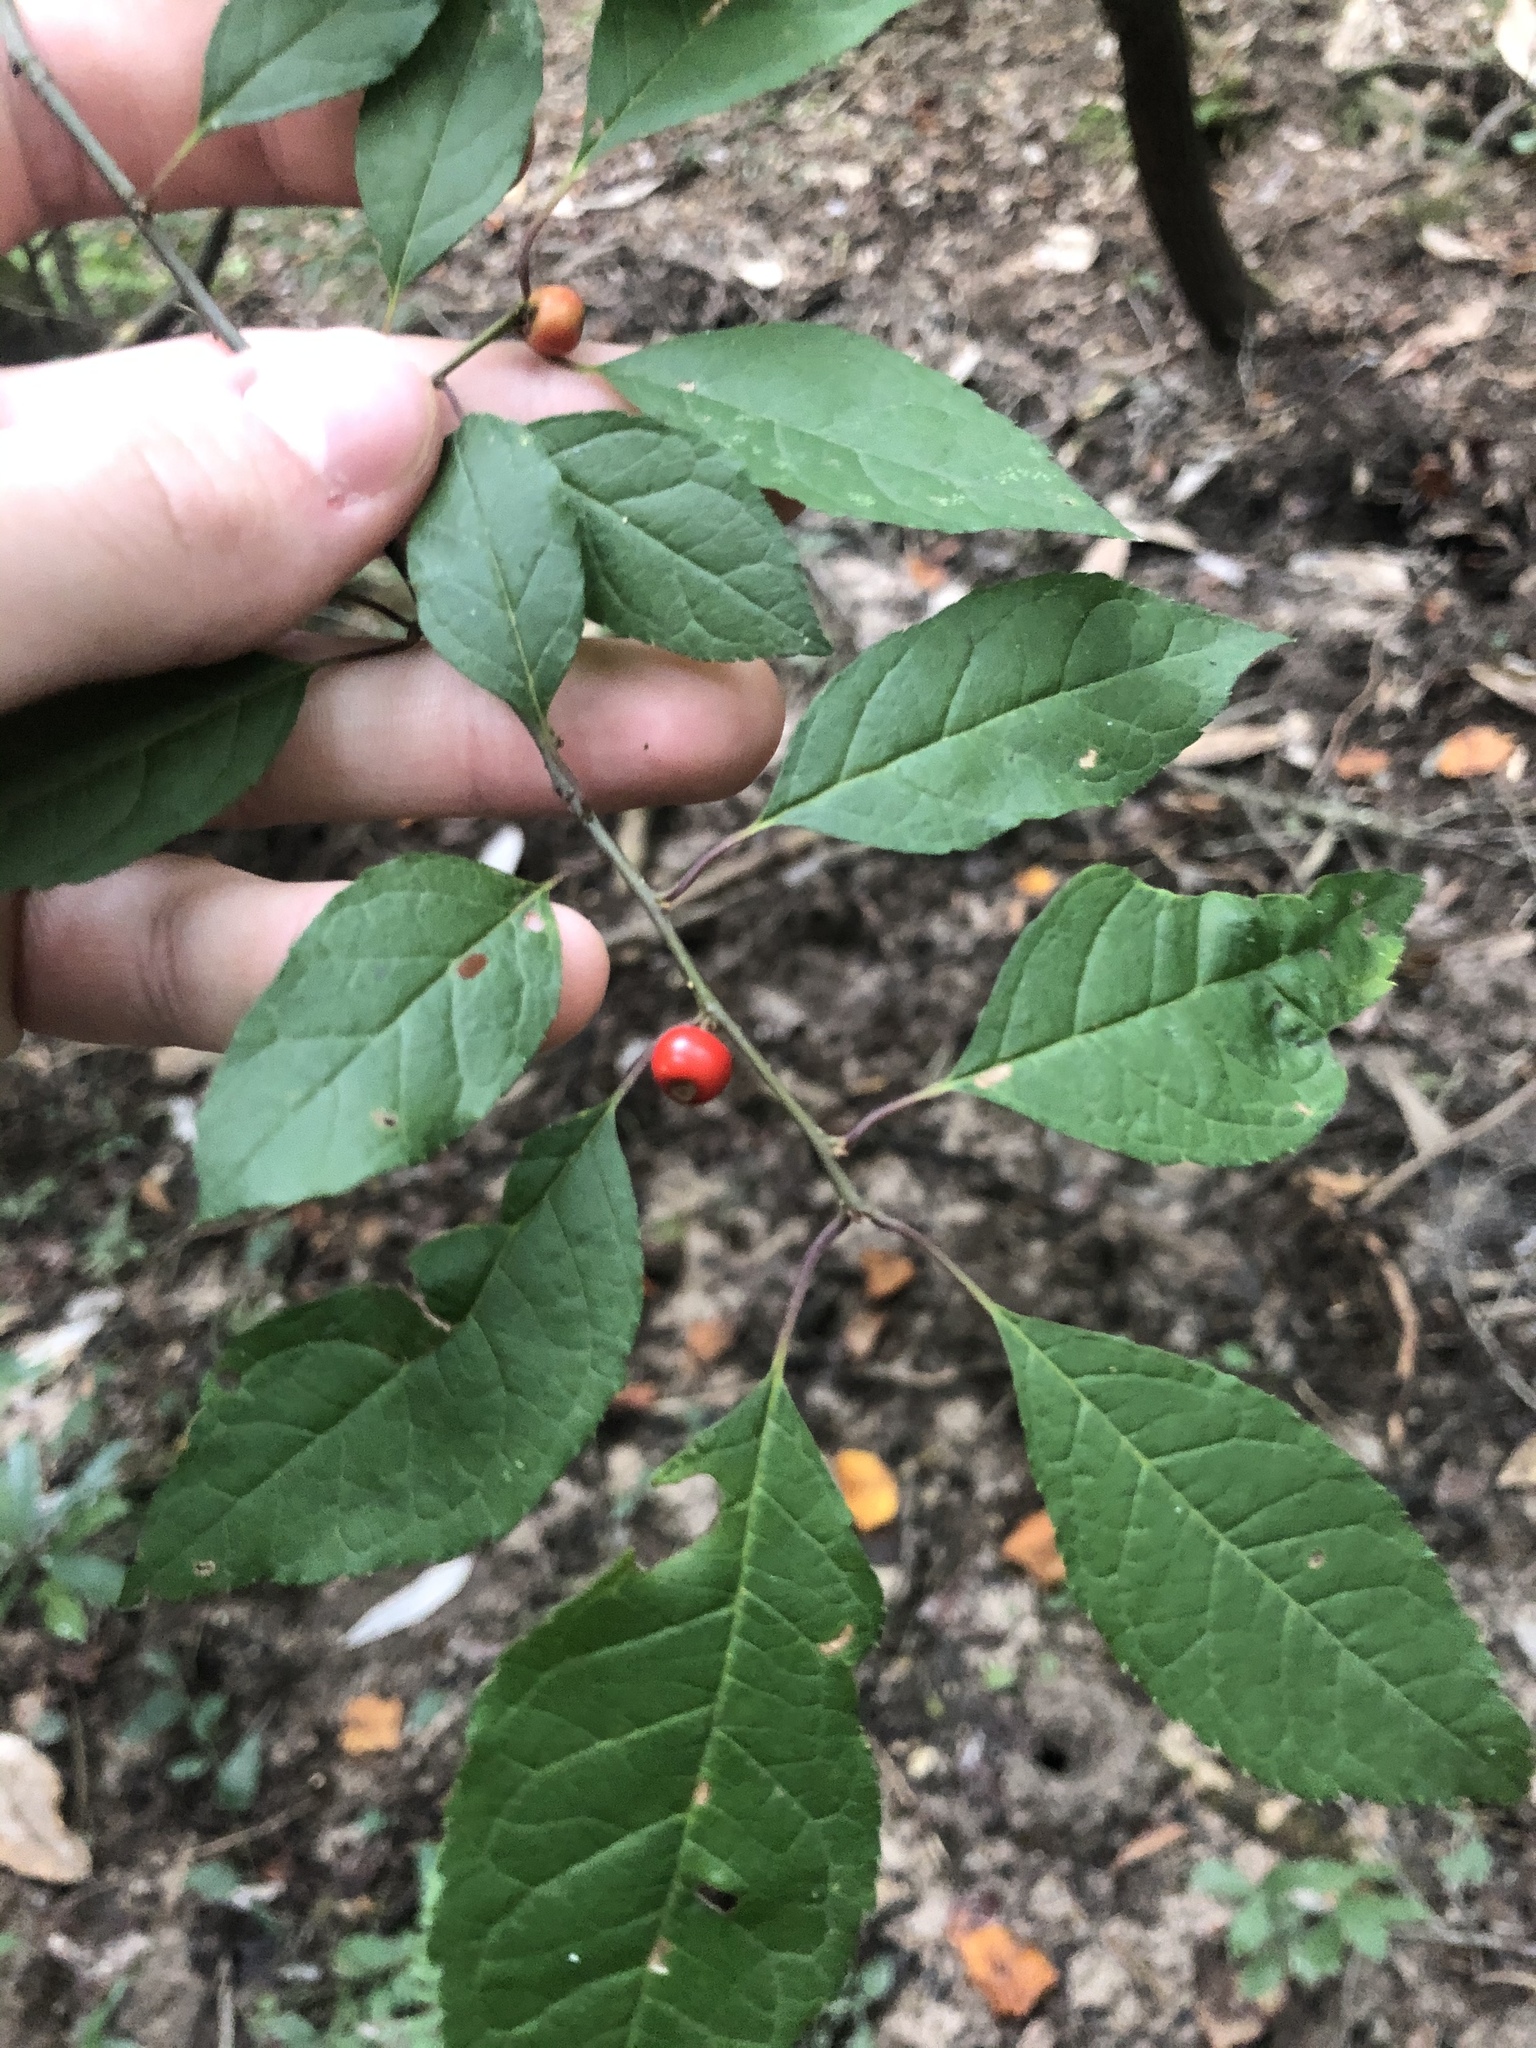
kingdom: Plantae
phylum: Tracheophyta
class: Magnoliopsida
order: Aquifoliales
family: Aquifoliaceae
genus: Ilex
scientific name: Ilex verticillata
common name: Virginia winterberry
